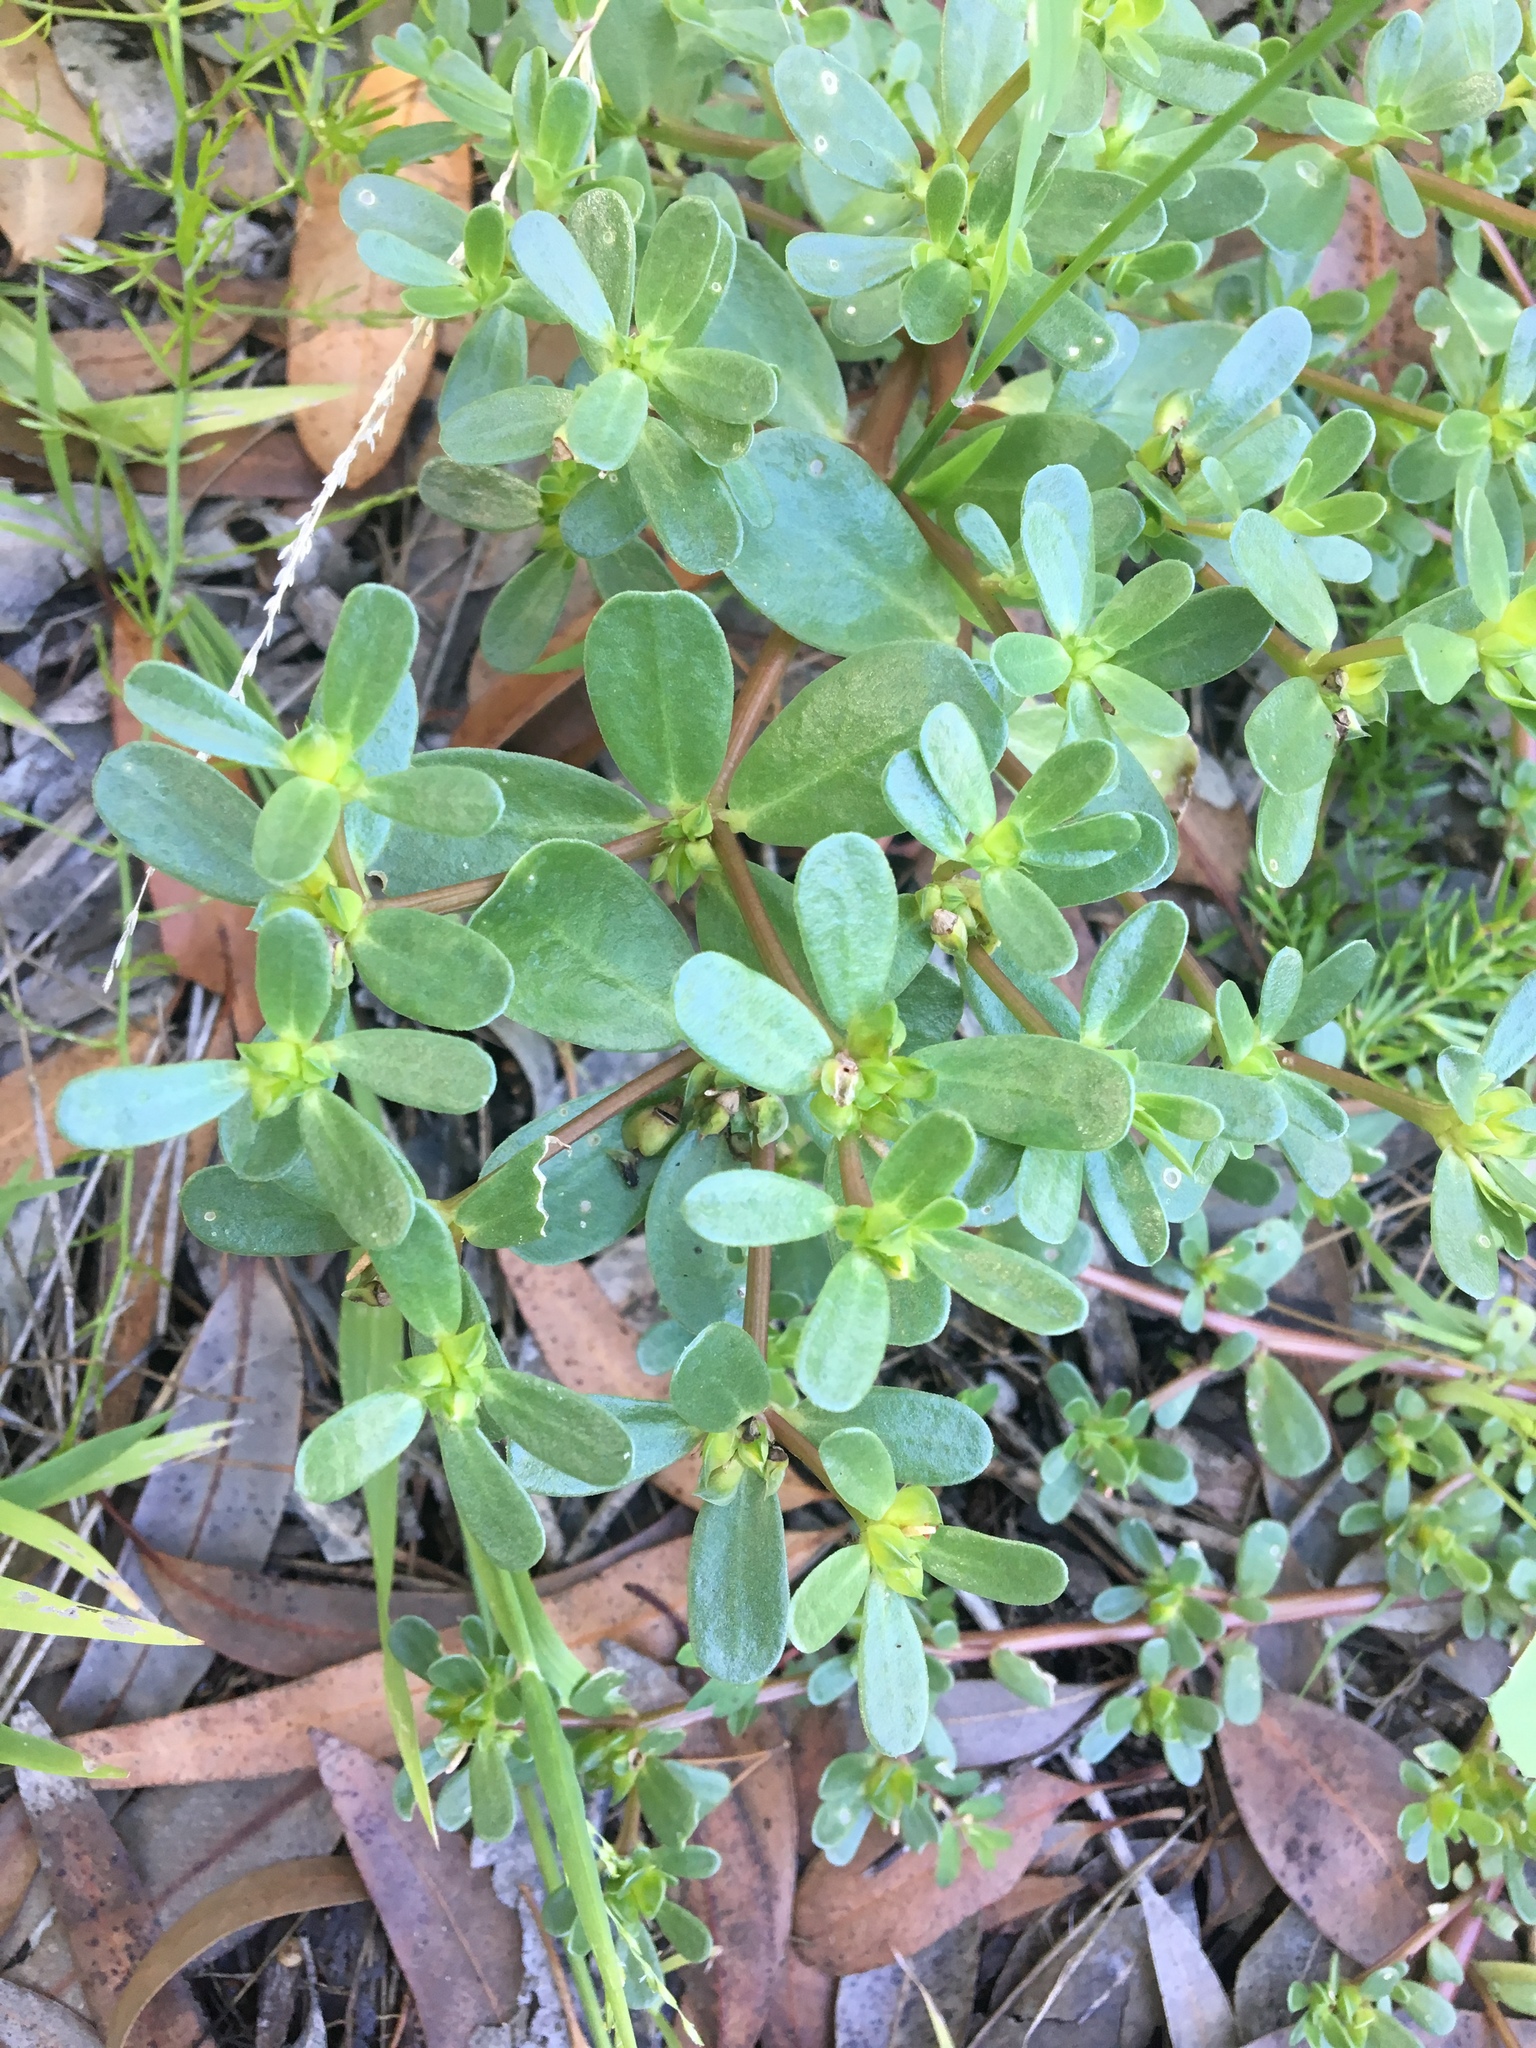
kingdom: Plantae
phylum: Tracheophyta
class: Magnoliopsida
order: Caryophyllales
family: Portulacaceae
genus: Portulaca
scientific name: Portulaca oleracea
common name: Common purslane
